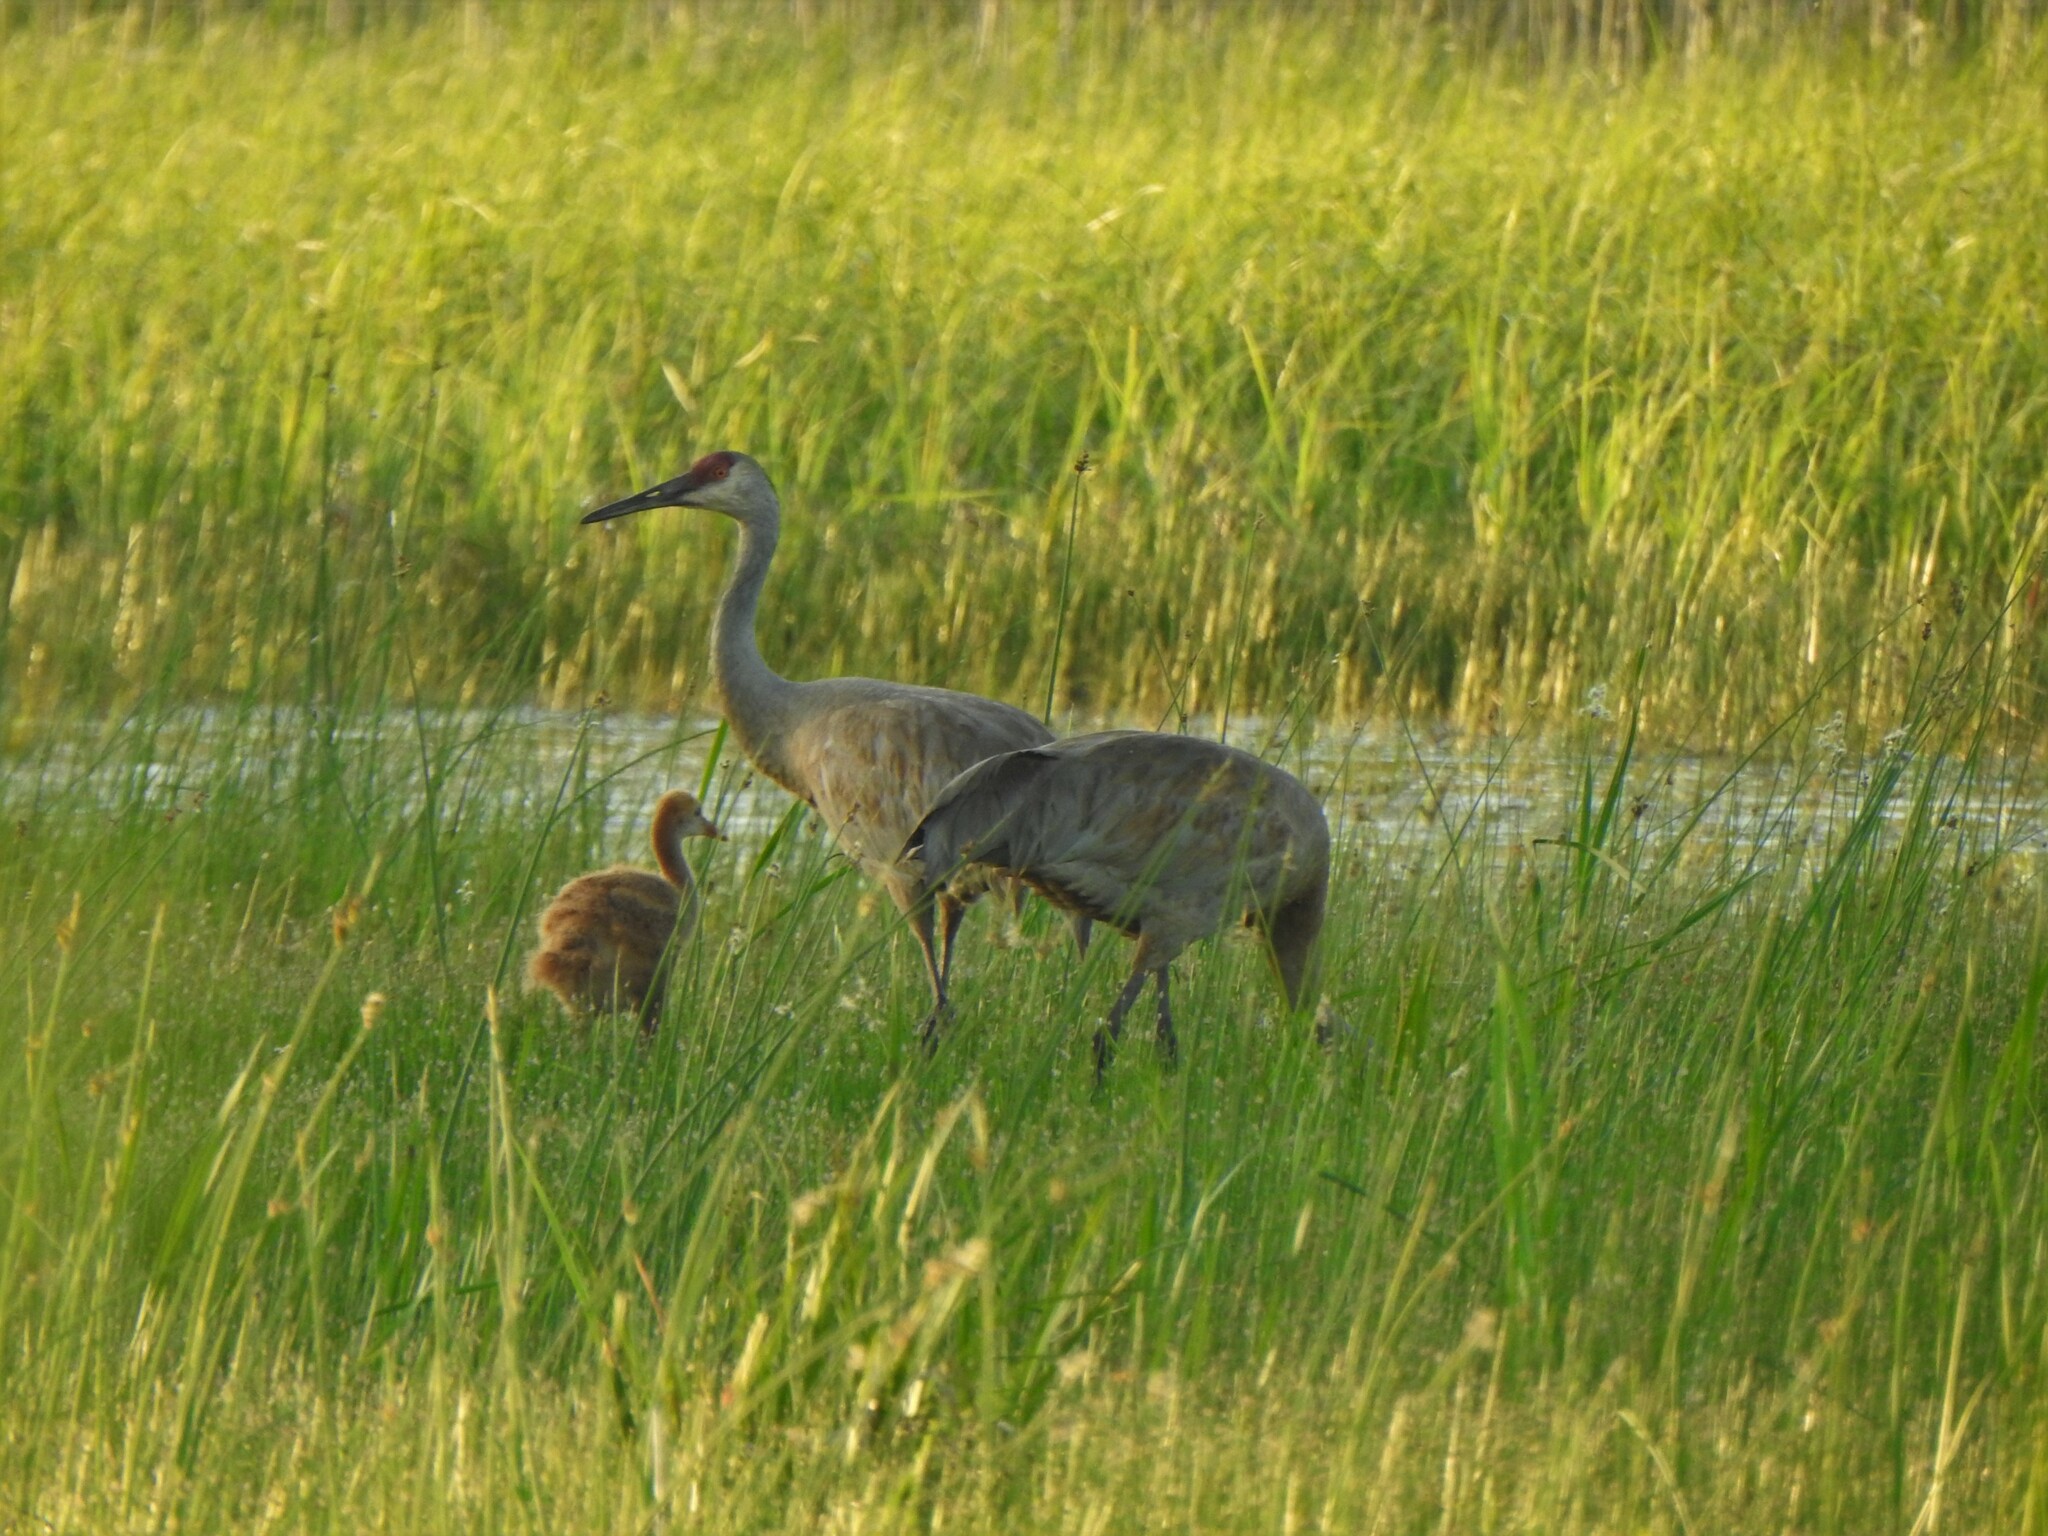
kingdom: Animalia
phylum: Chordata
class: Aves
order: Gruiformes
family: Gruidae
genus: Grus
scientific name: Grus canadensis
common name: Sandhill crane
